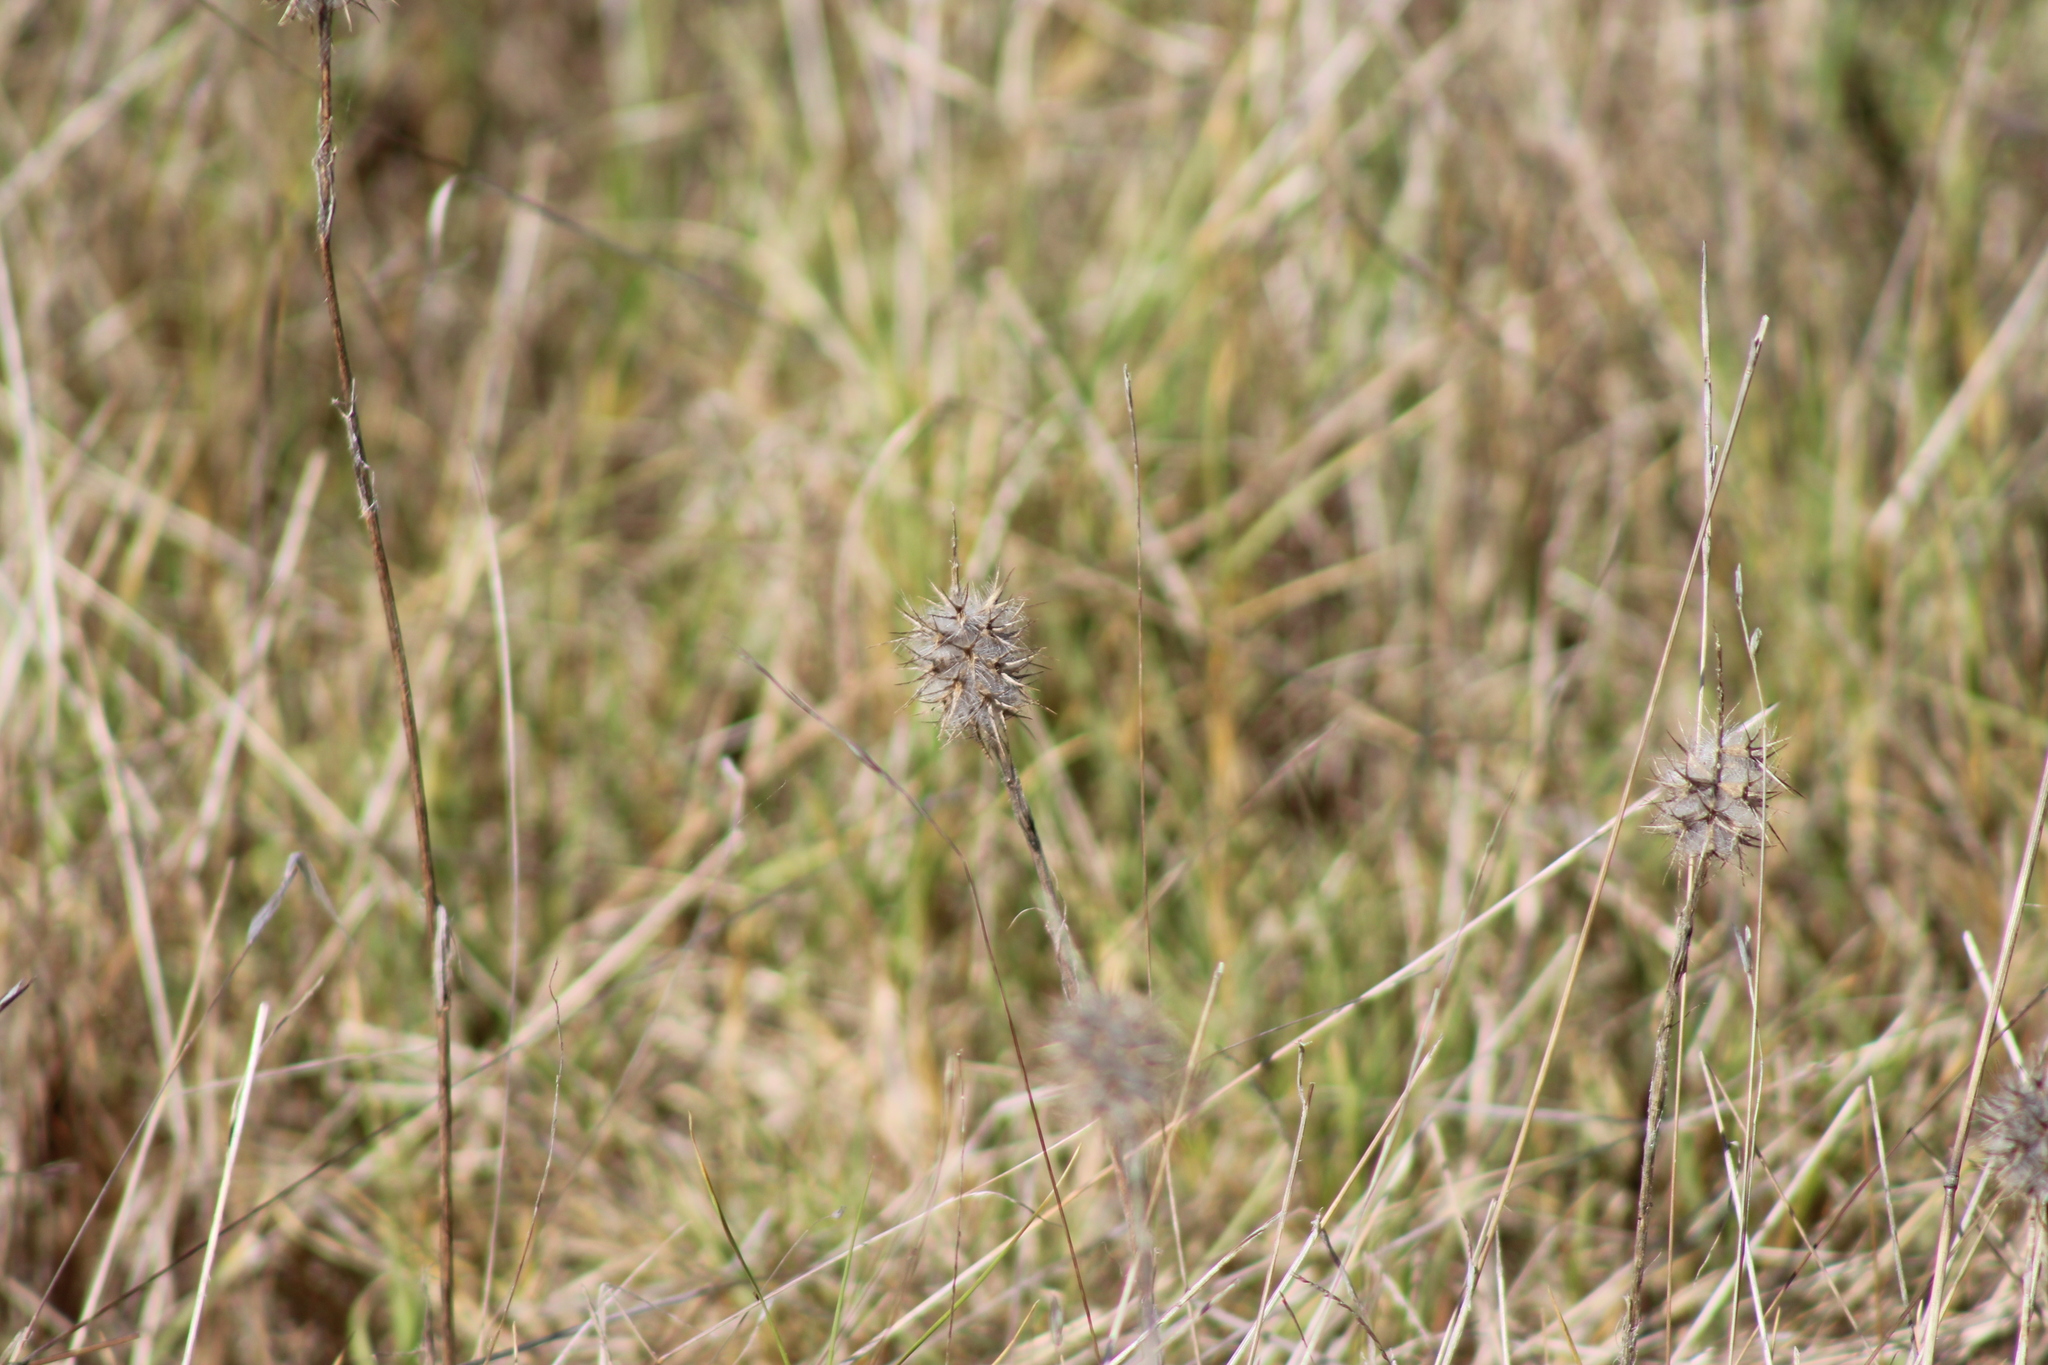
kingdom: Plantae
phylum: Tracheophyta
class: Magnoliopsida
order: Fabales
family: Fabaceae
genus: Trifolium
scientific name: Trifolium angustifolium
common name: Narrow clover
